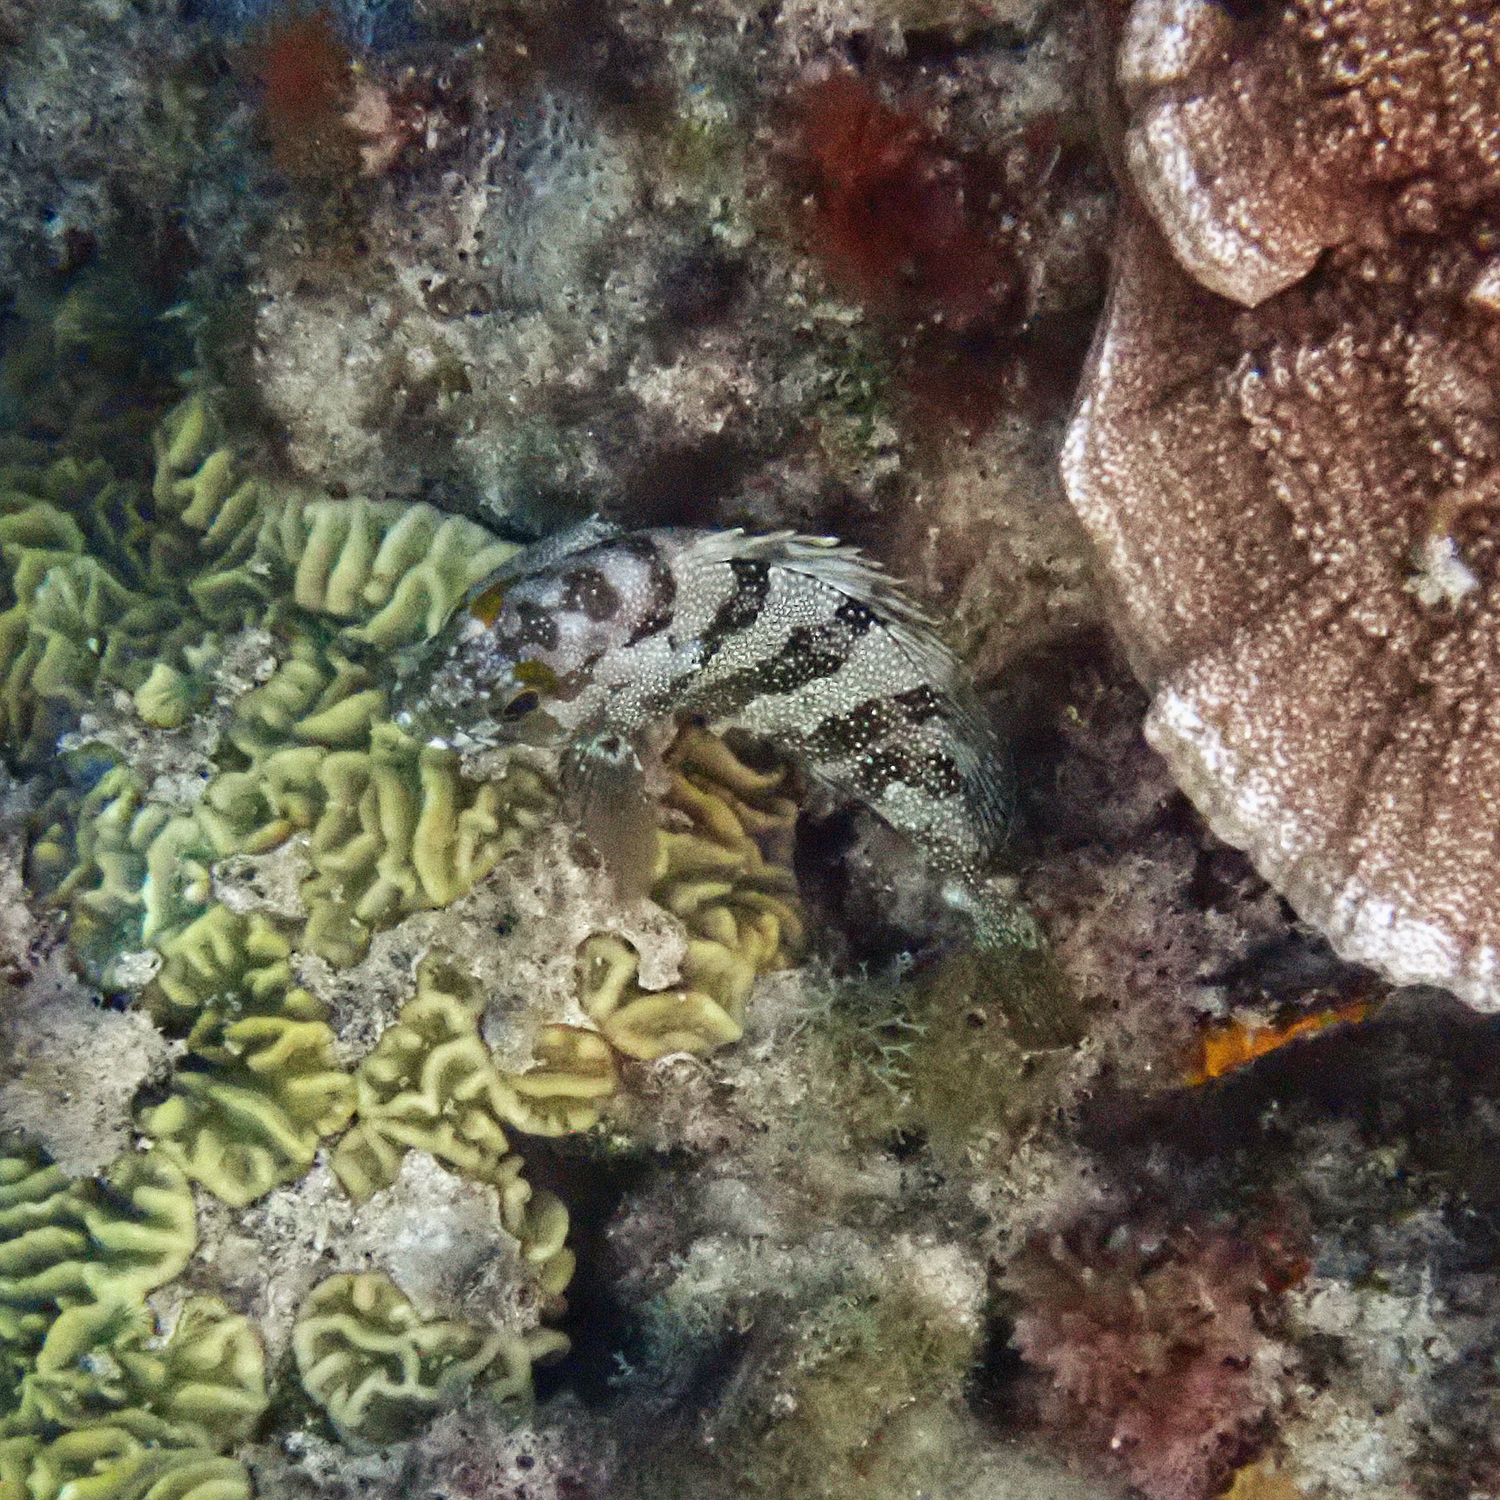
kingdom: Animalia
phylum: Chordata
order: Perciformes
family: Serranidae
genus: Epinephelus
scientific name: Epinephelus rivulatus
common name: Halfmoon grouper
